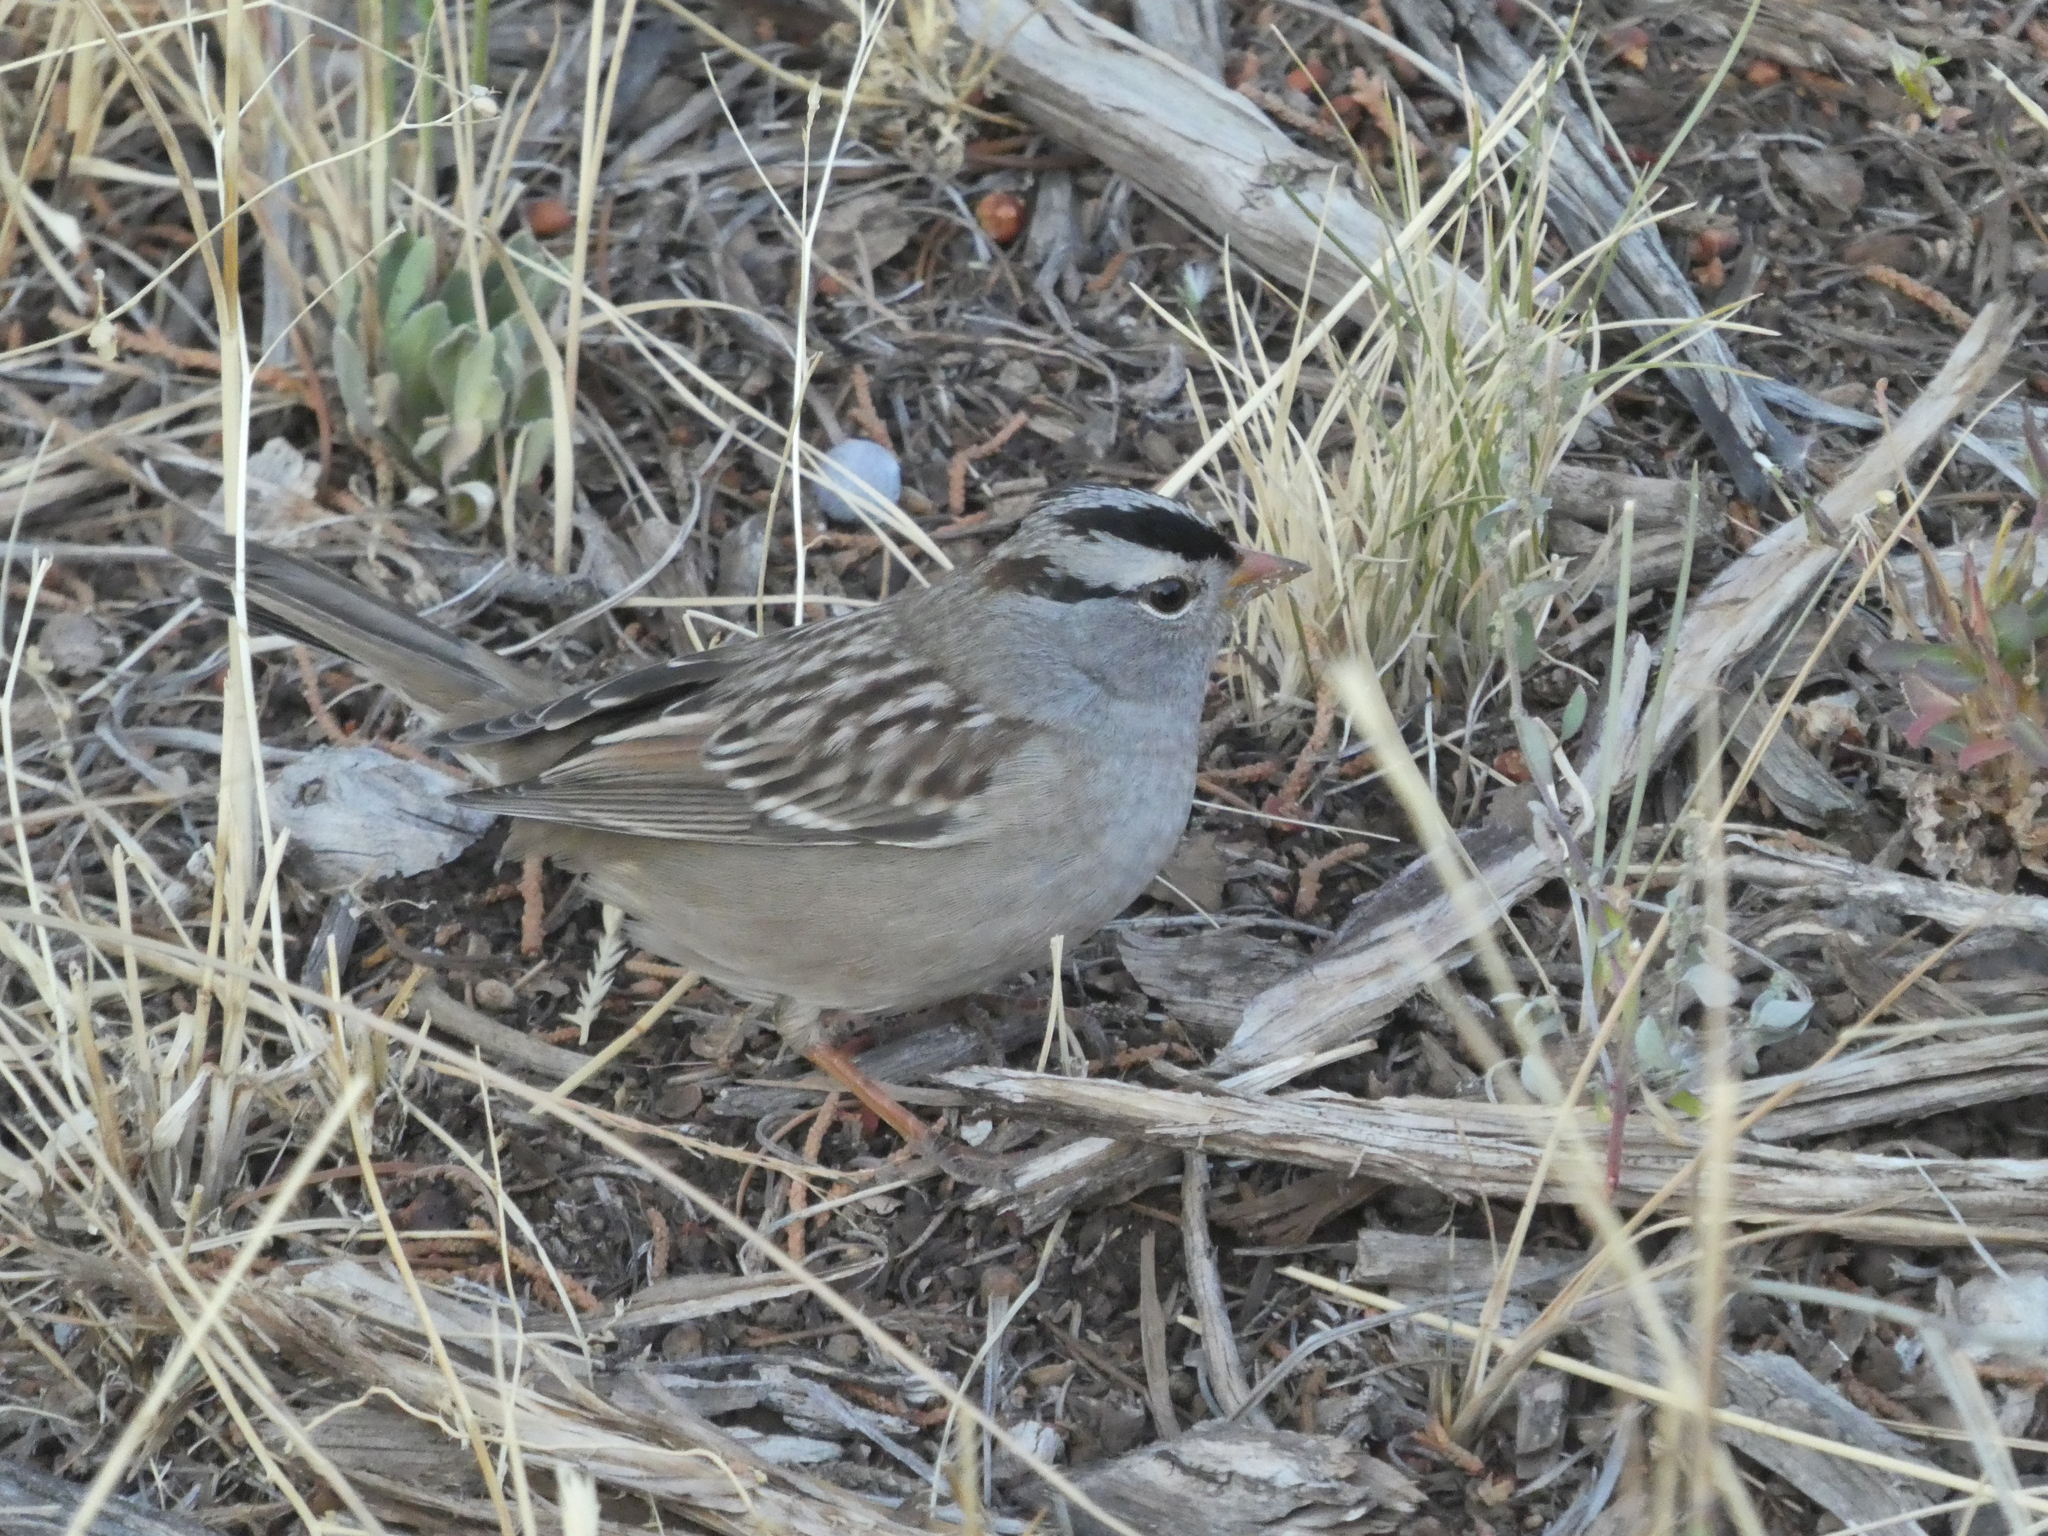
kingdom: Animalia
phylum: Chordata
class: Aves
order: Passeriformes
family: Passerellidae
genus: Zonotrichia
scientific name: Zonotrichia leucophrys
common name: White-crowned sparrow
